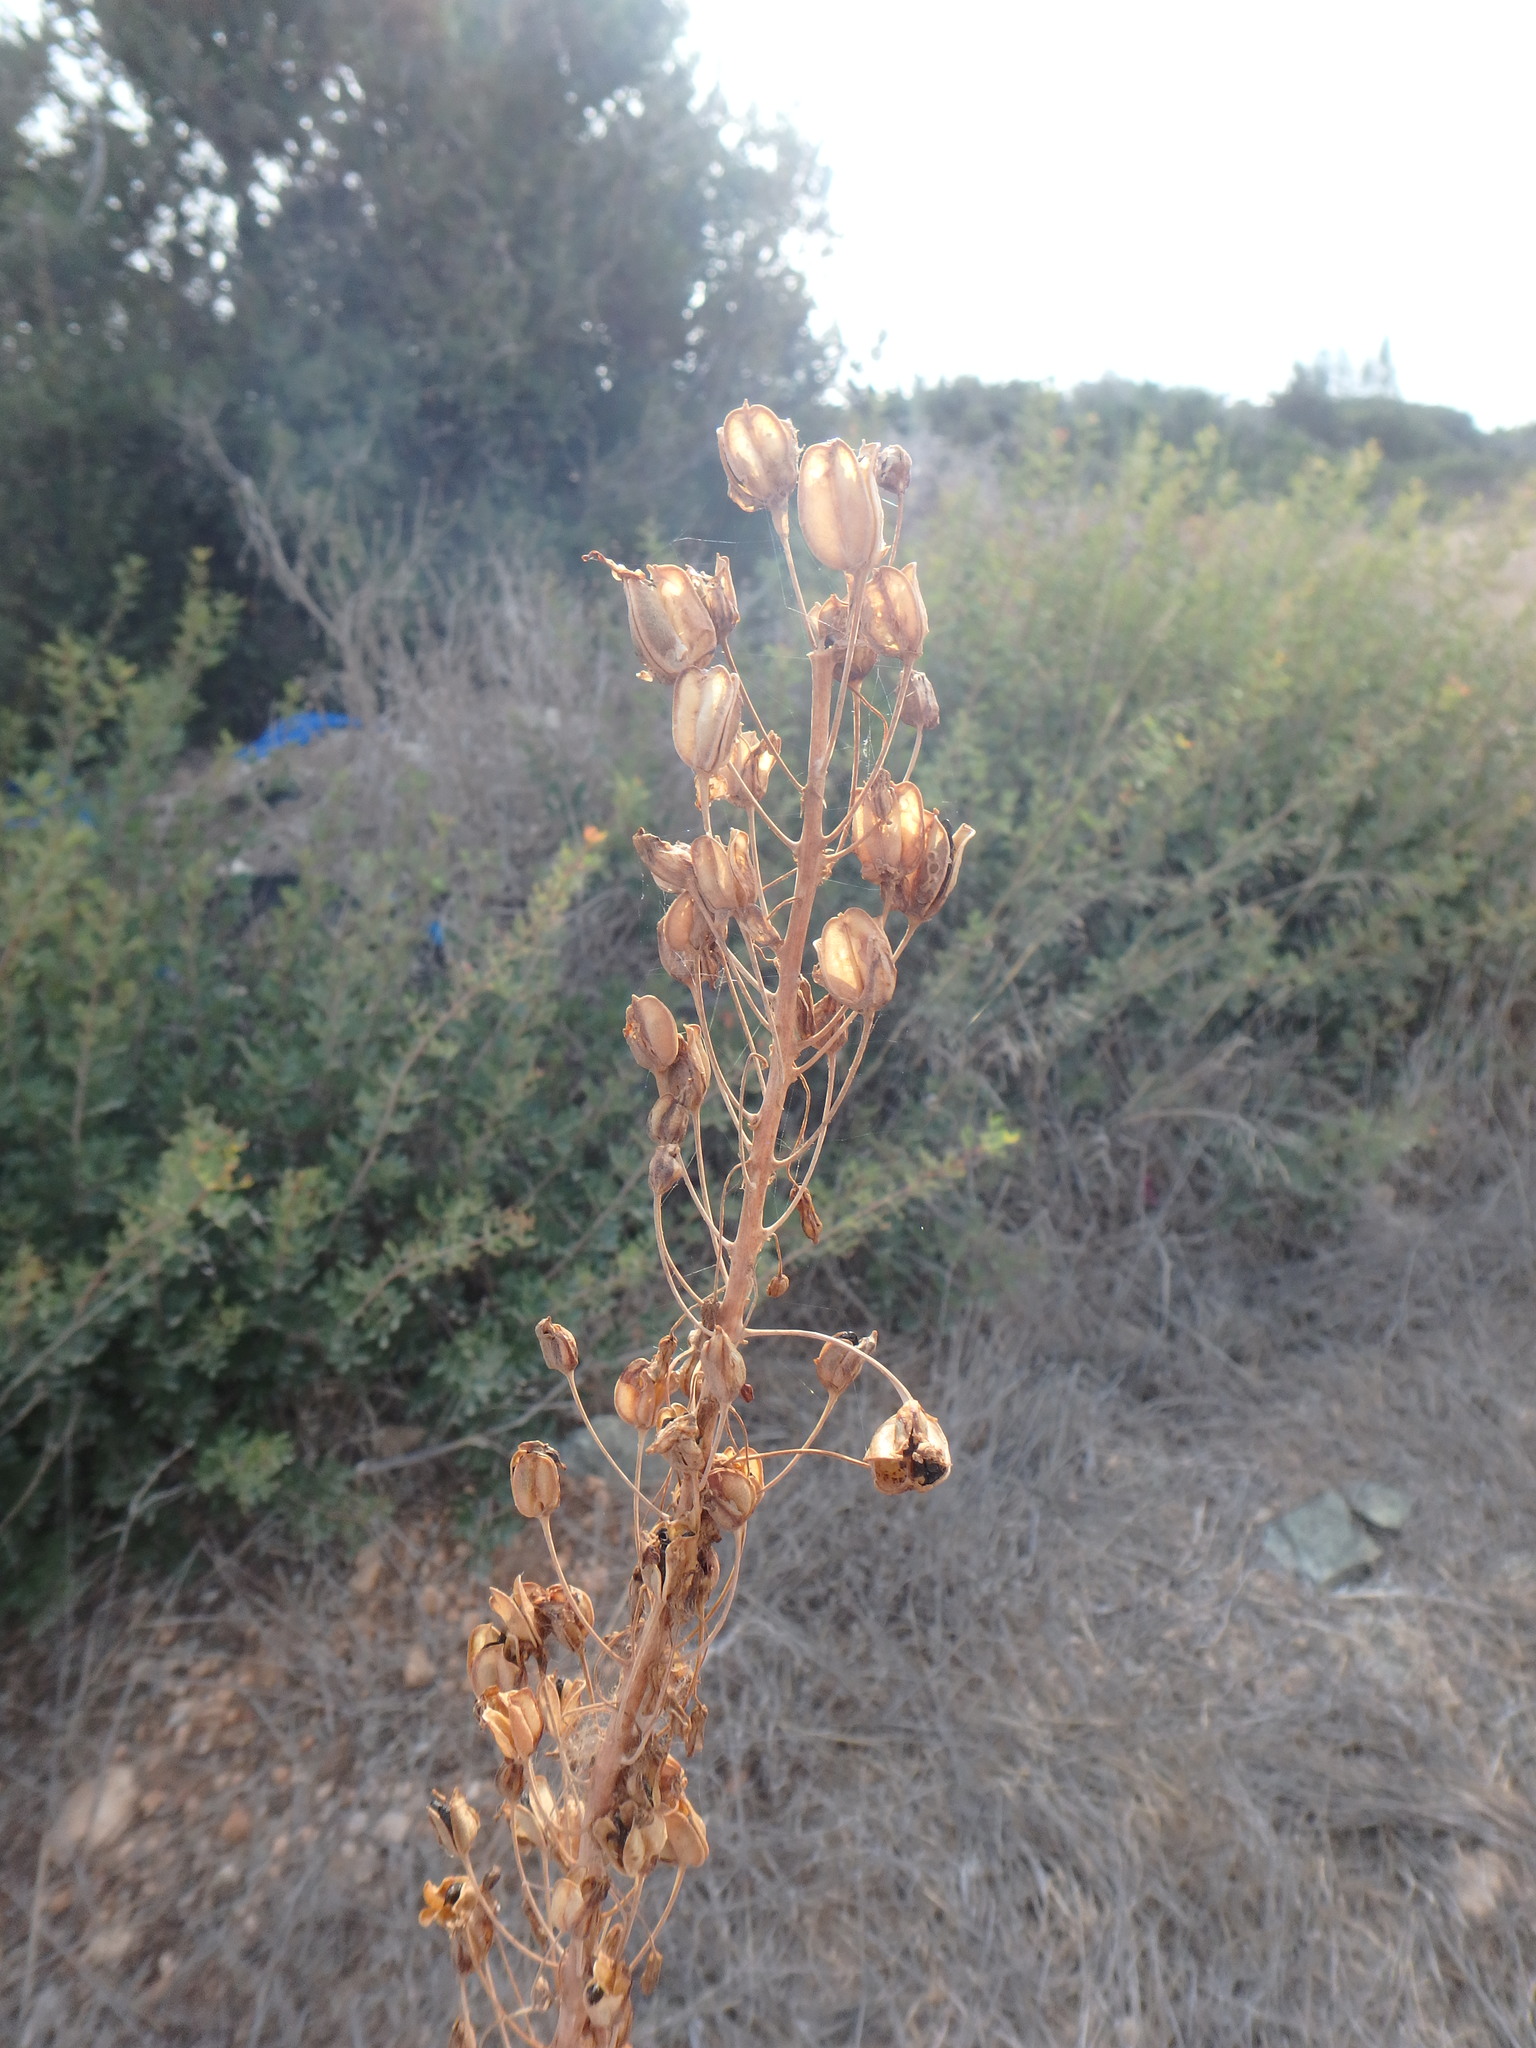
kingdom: Plantae
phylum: Tracheophyta
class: Liliopsida
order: Asparagales
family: Asparagaceae
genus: Drimia
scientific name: Drimia aphylla
